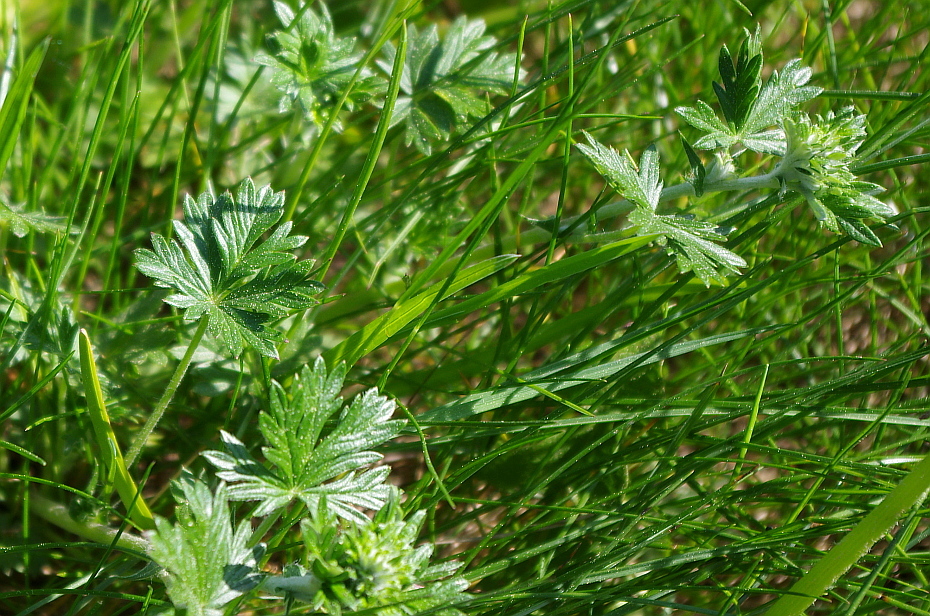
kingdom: Plantae
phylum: Tracheophyta
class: Magnoliopsida
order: Rosales
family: Rosaceae
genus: Potentilla
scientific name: Potentilla argentea
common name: Hoary cinquefoil
